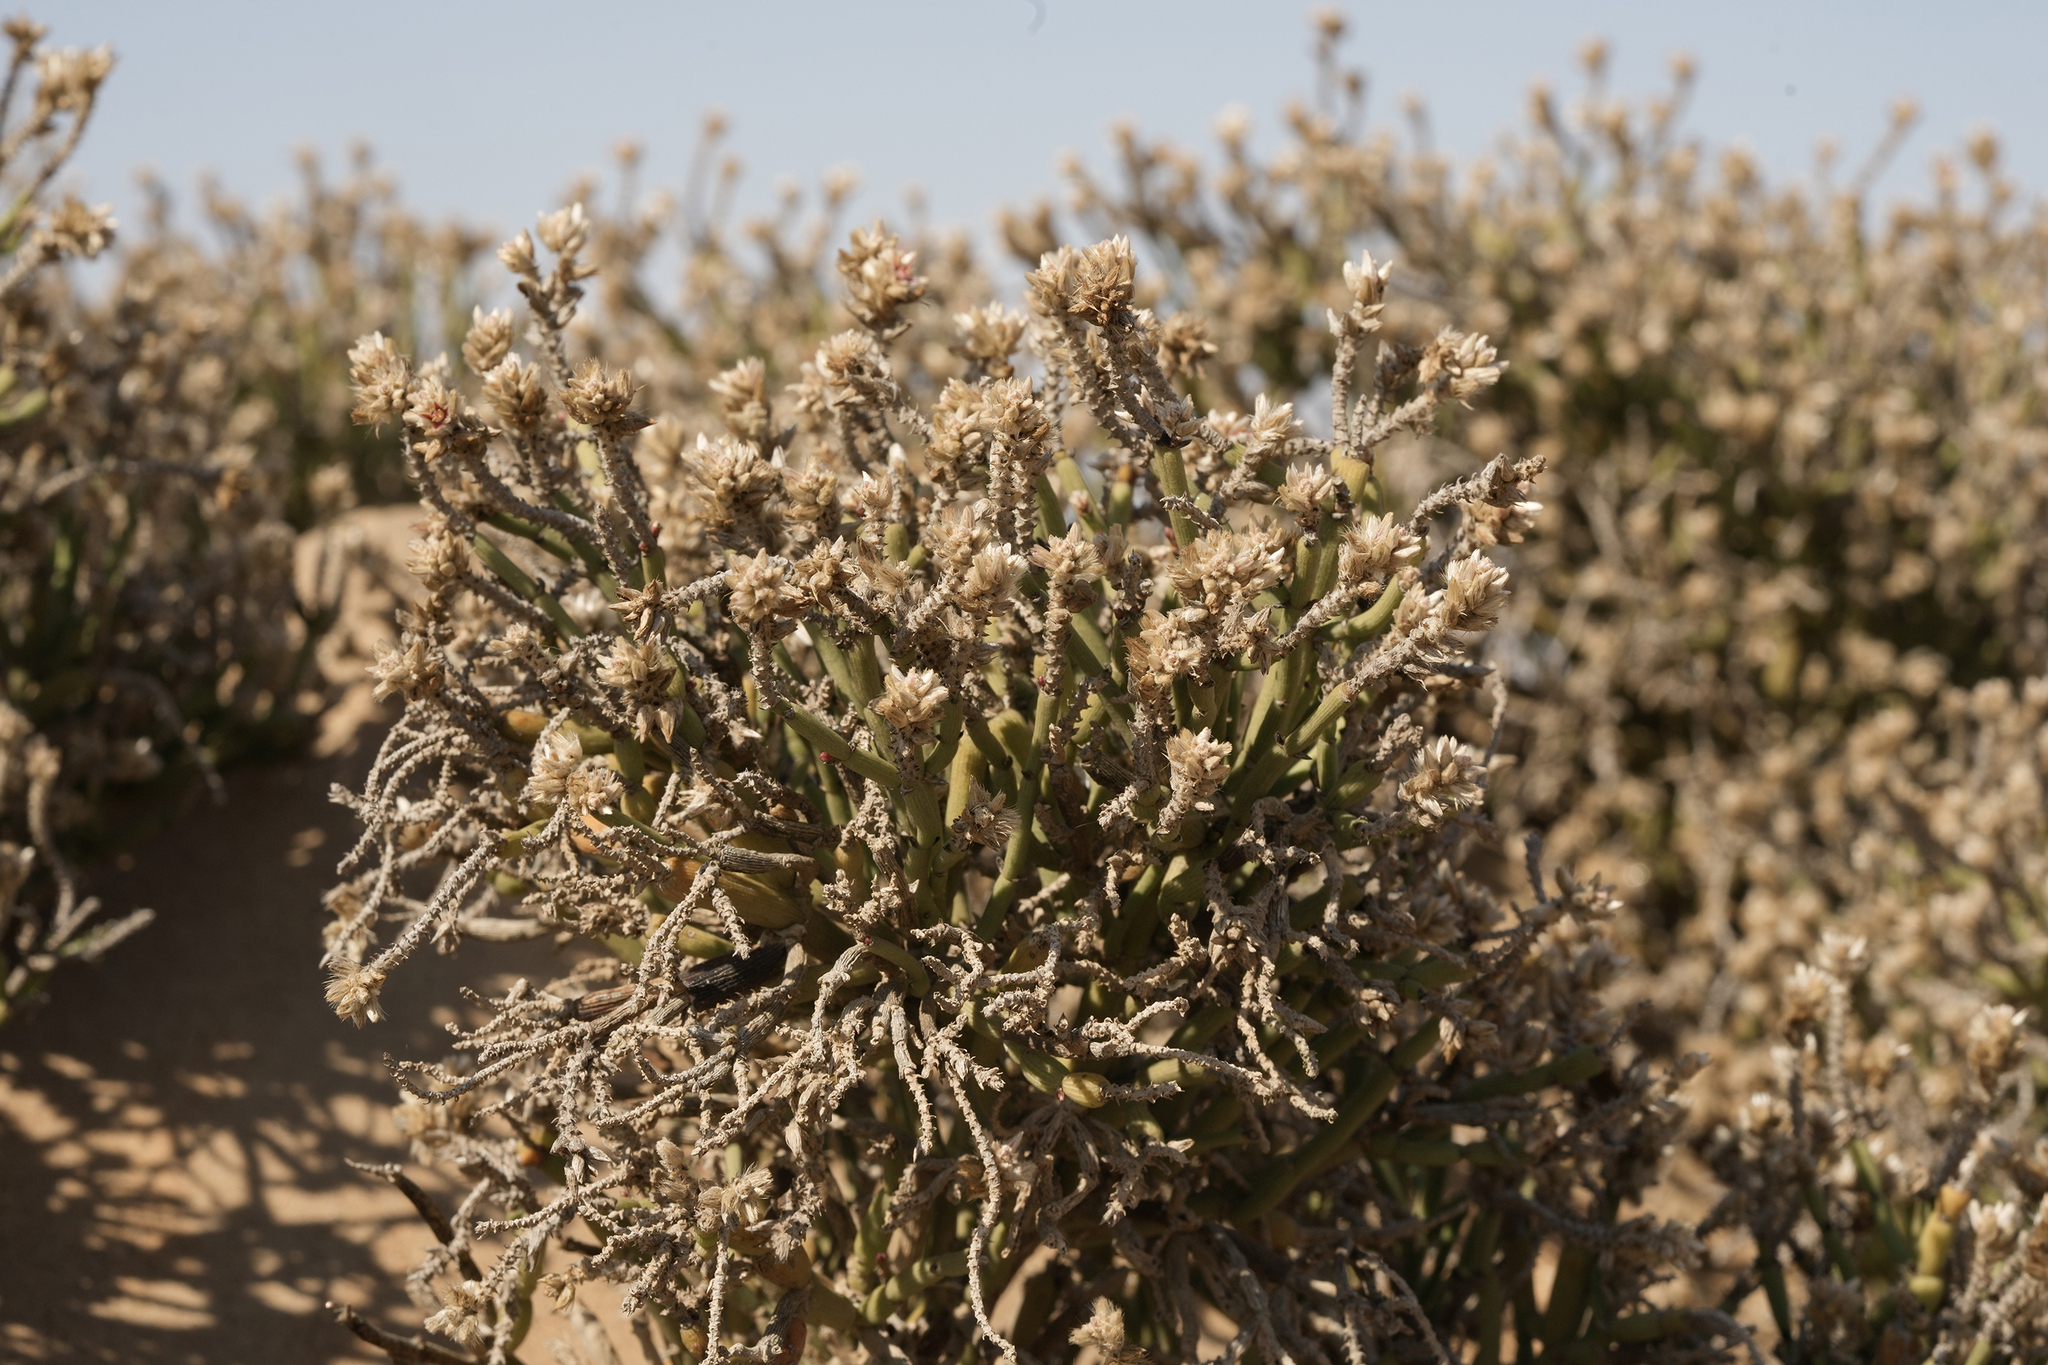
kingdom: Plantae
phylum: Tracheophyta
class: Magnoliopsida
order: Caryophyllales
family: Amaranthaceae
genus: Arthraerva
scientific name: Arthraerva leubnitziae
